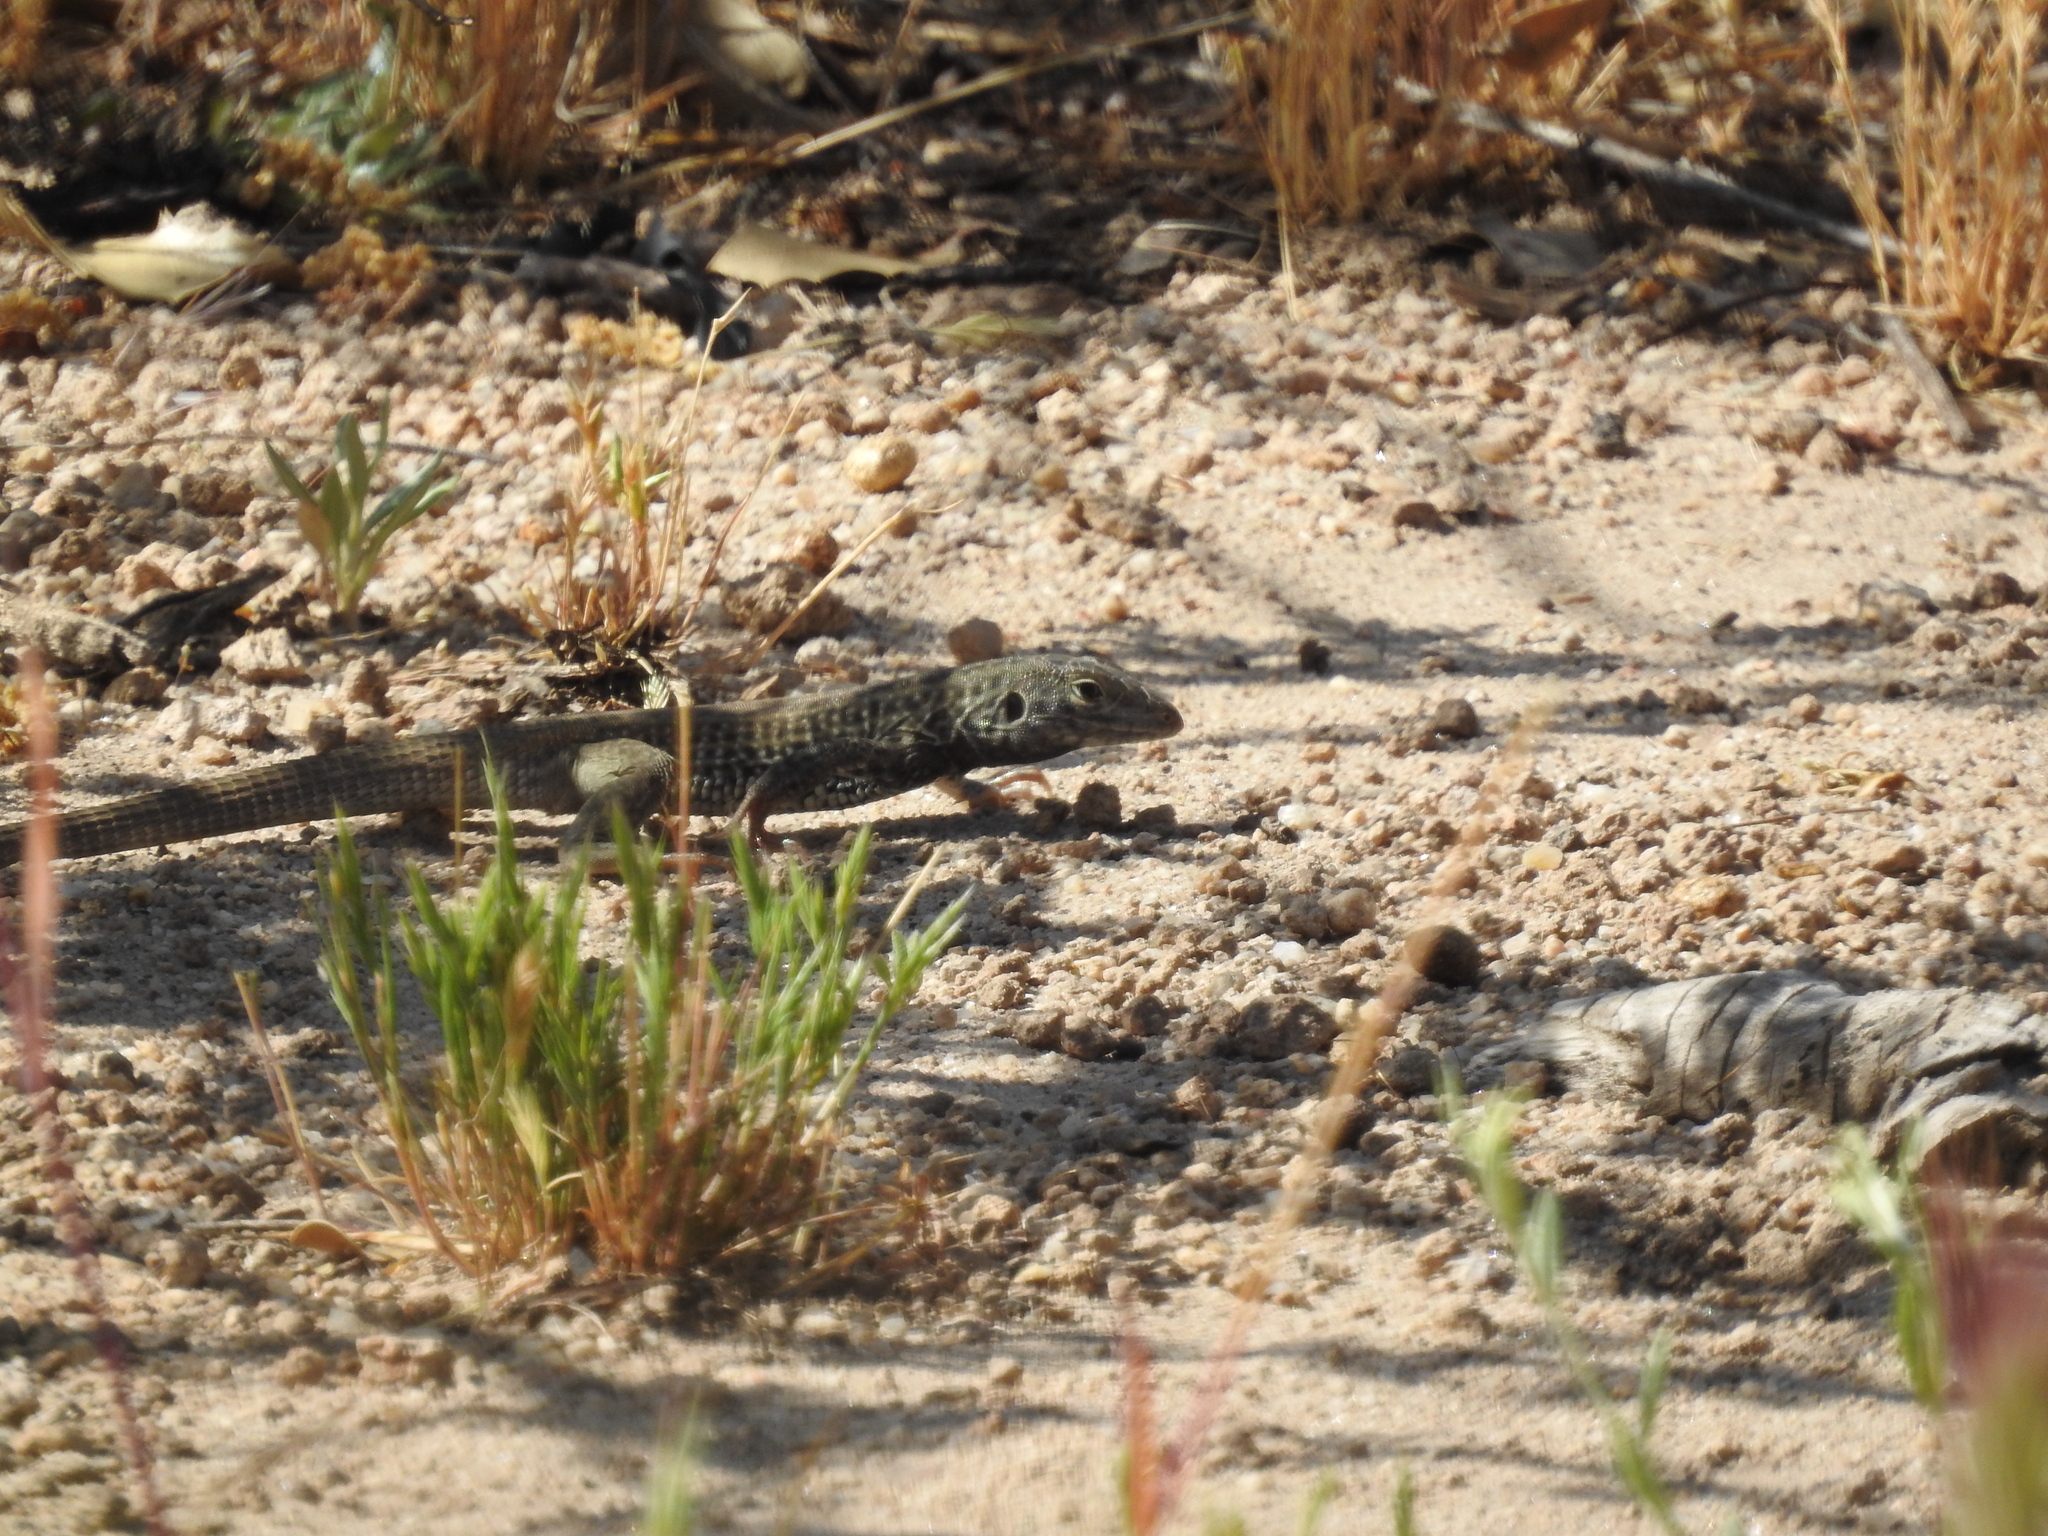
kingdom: Animalia
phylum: Chordata
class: Squamata
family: Teiidae
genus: Aspidoscelis
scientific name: Aspidoscelis tigris
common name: Tiger whiptail
